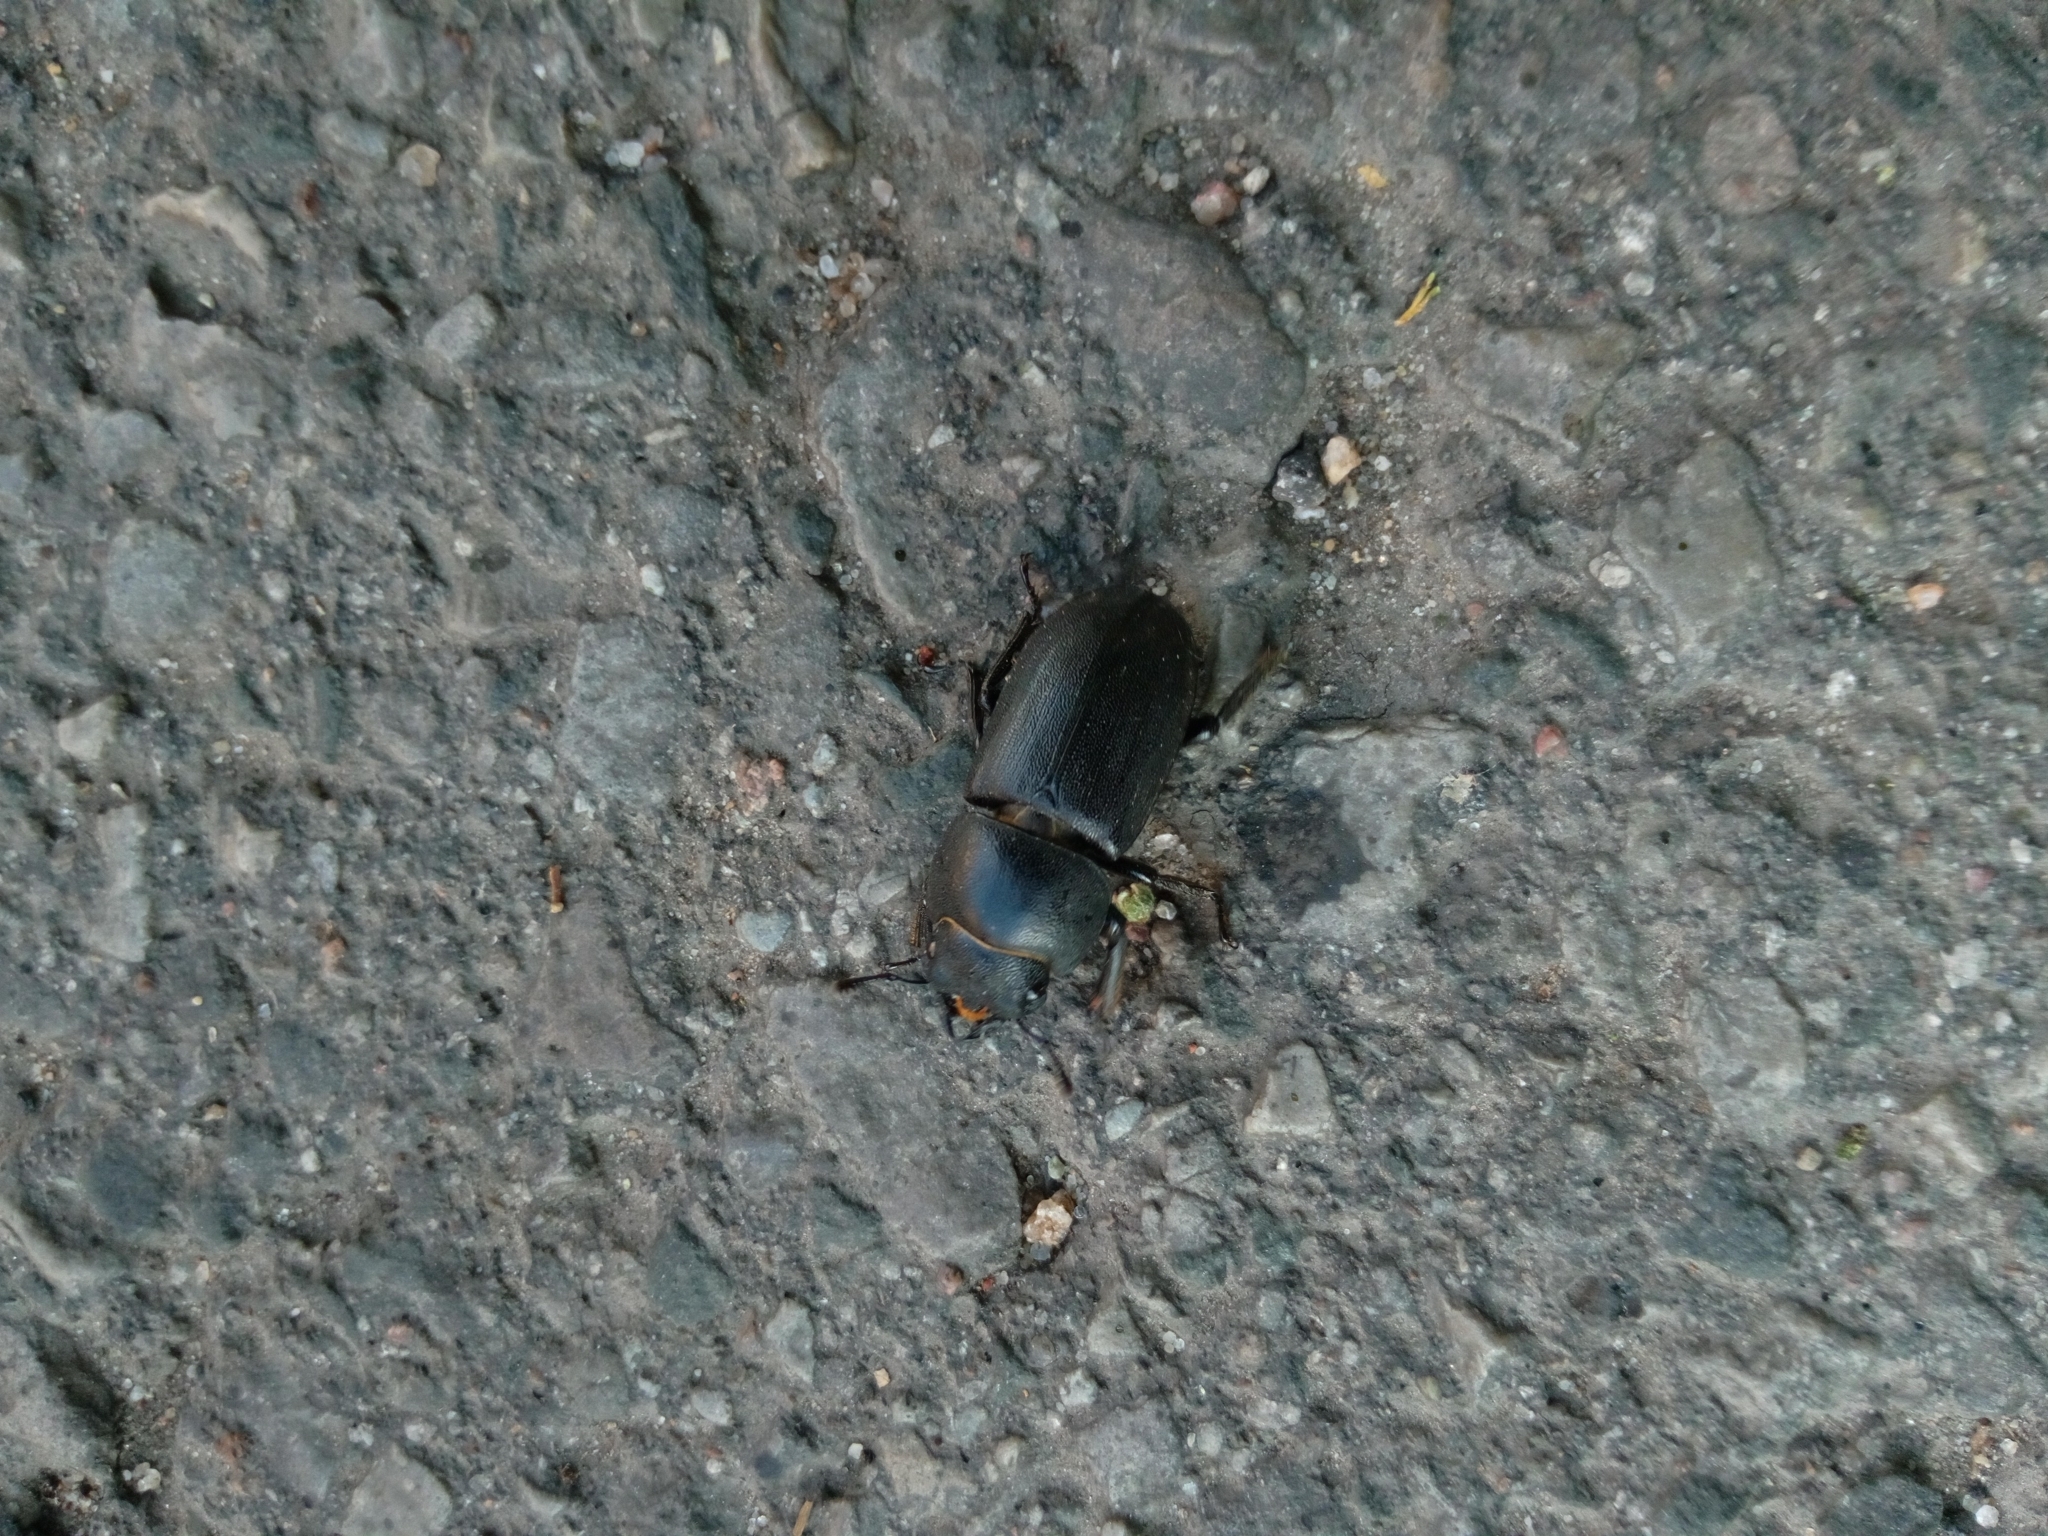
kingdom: Animalia
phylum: Arthropoda
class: Insecta
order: Coleoptera
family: Lucanidae
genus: Dorcus
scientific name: Dorcus parallelipipedus
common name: Lesser stag beetle
